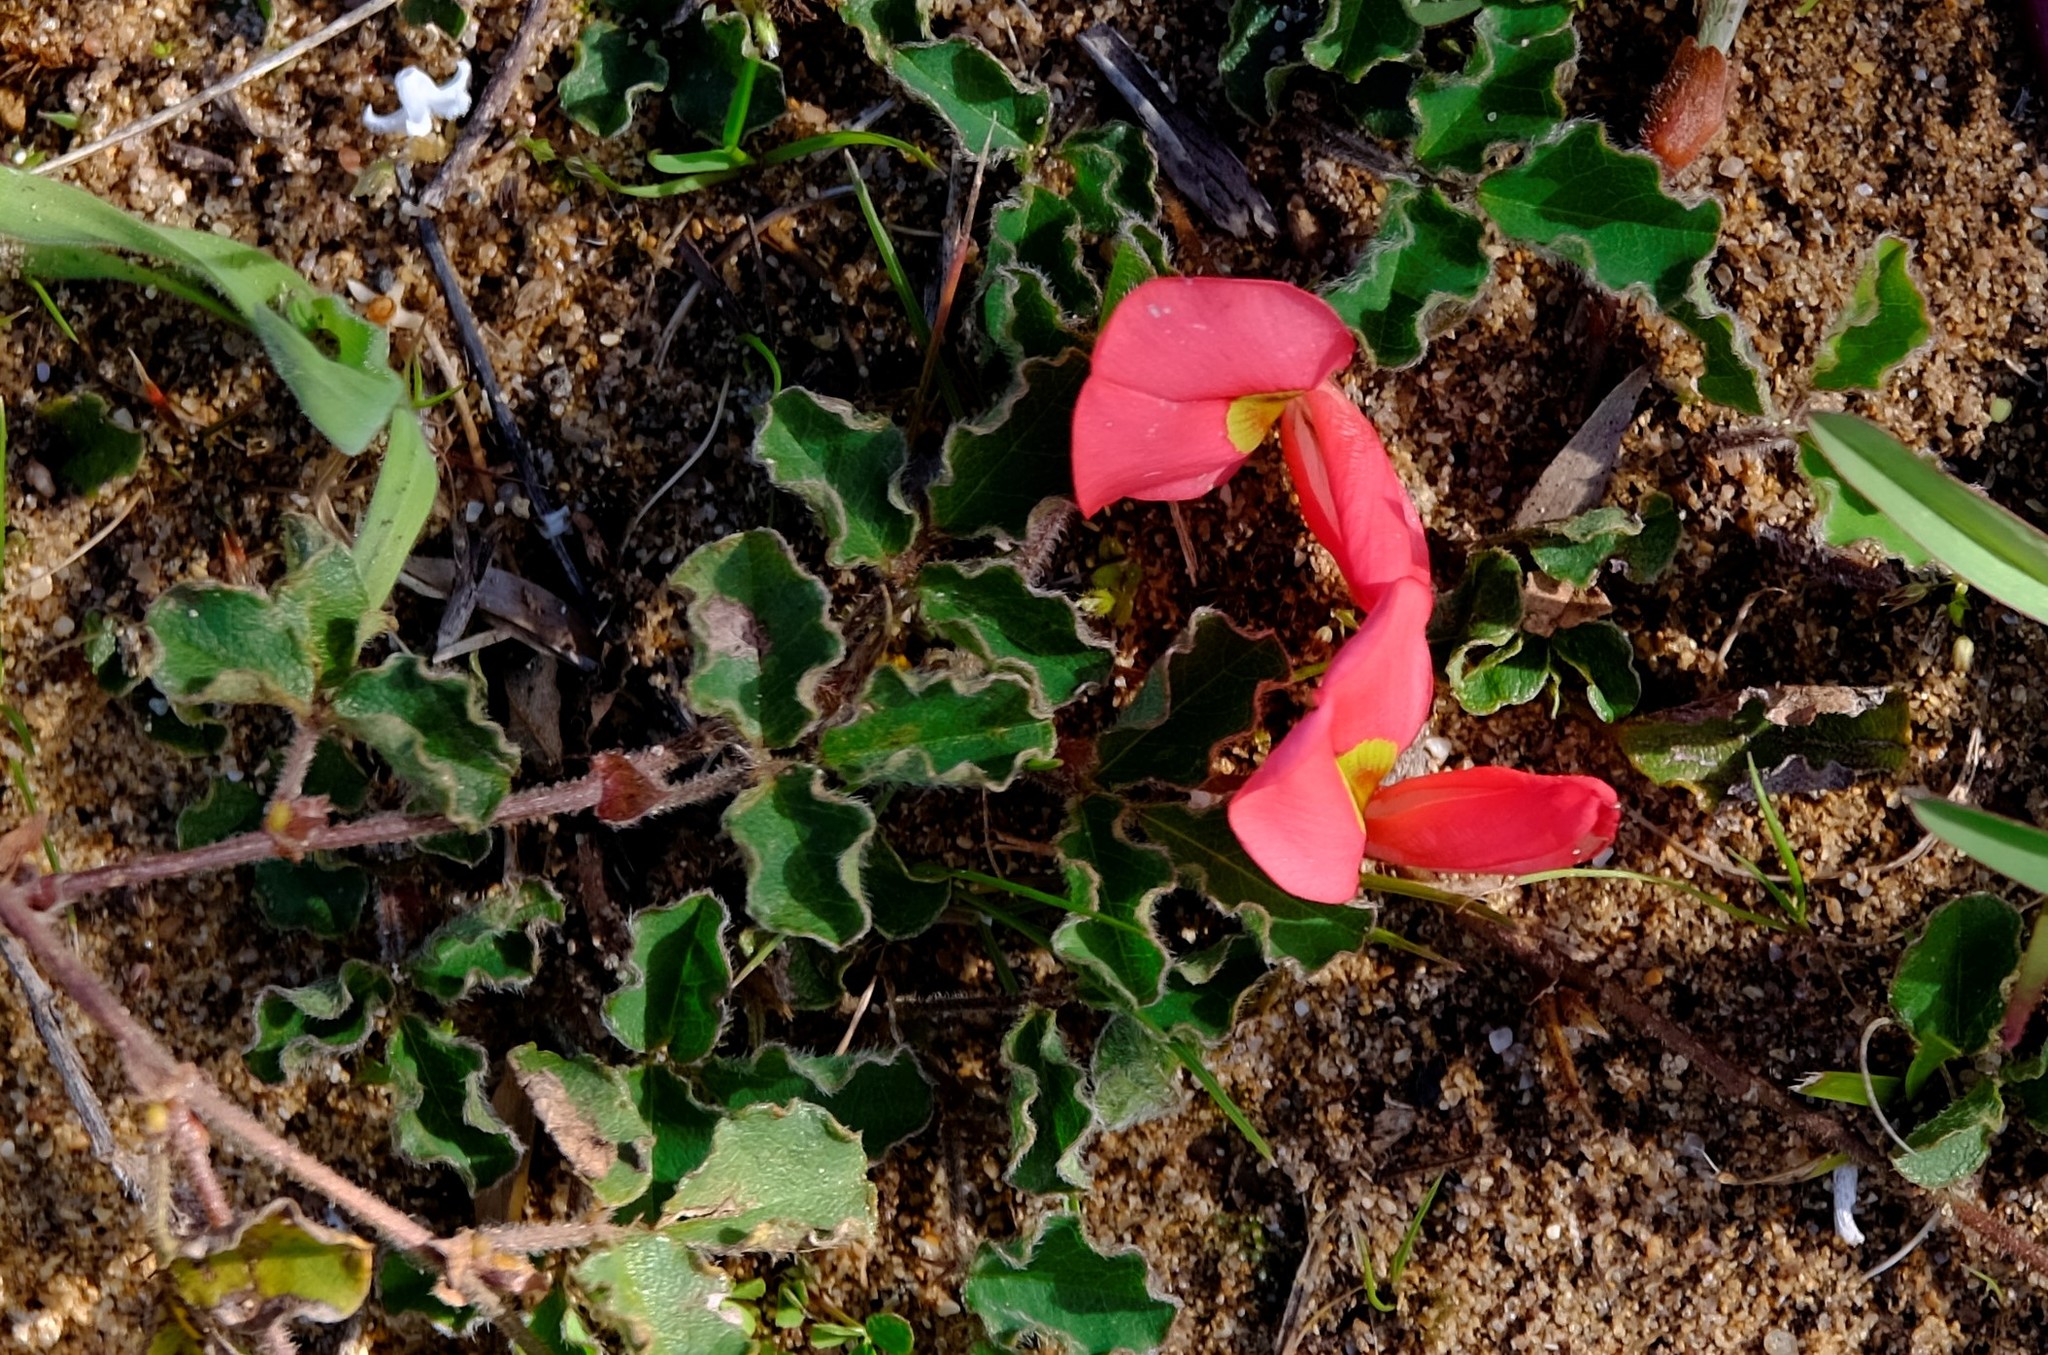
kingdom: Plantae
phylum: Tracheophyta
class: Magnoliopsida
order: Fabales
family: Fabaceae
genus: Kennedia
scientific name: Kennedia prostrata
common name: Running-postman
